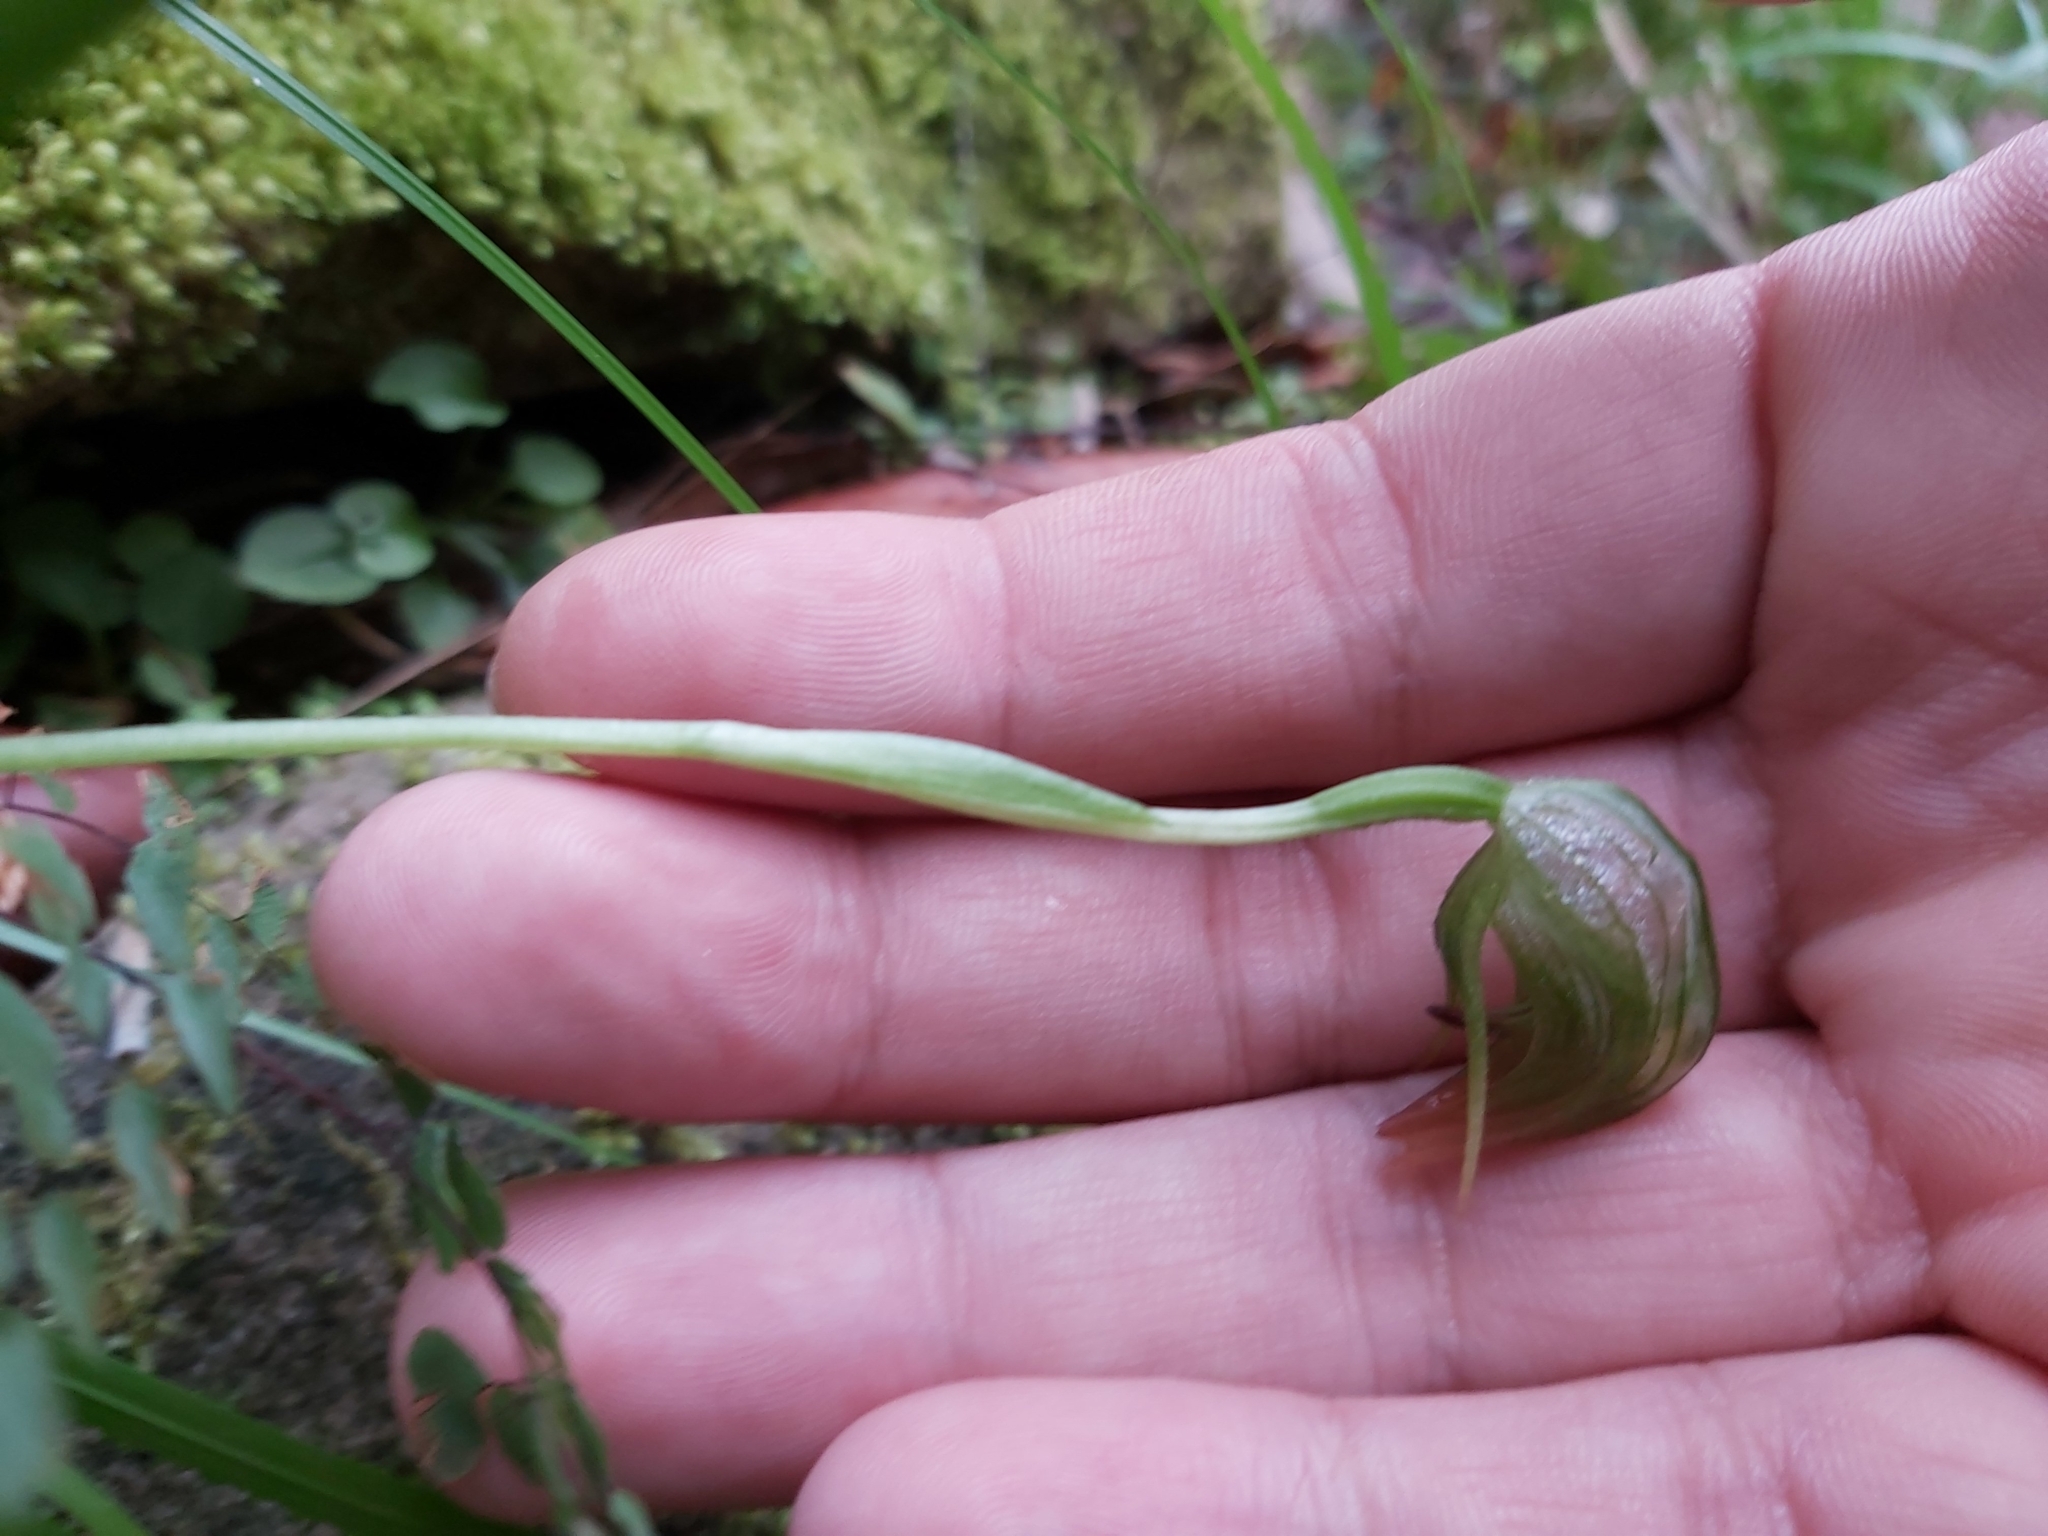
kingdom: Plantae
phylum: Tracheophyta
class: Liliopsida
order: Asparagales
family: Orchidaceae
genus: Pterostylis
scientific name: Pterostylis nutans
